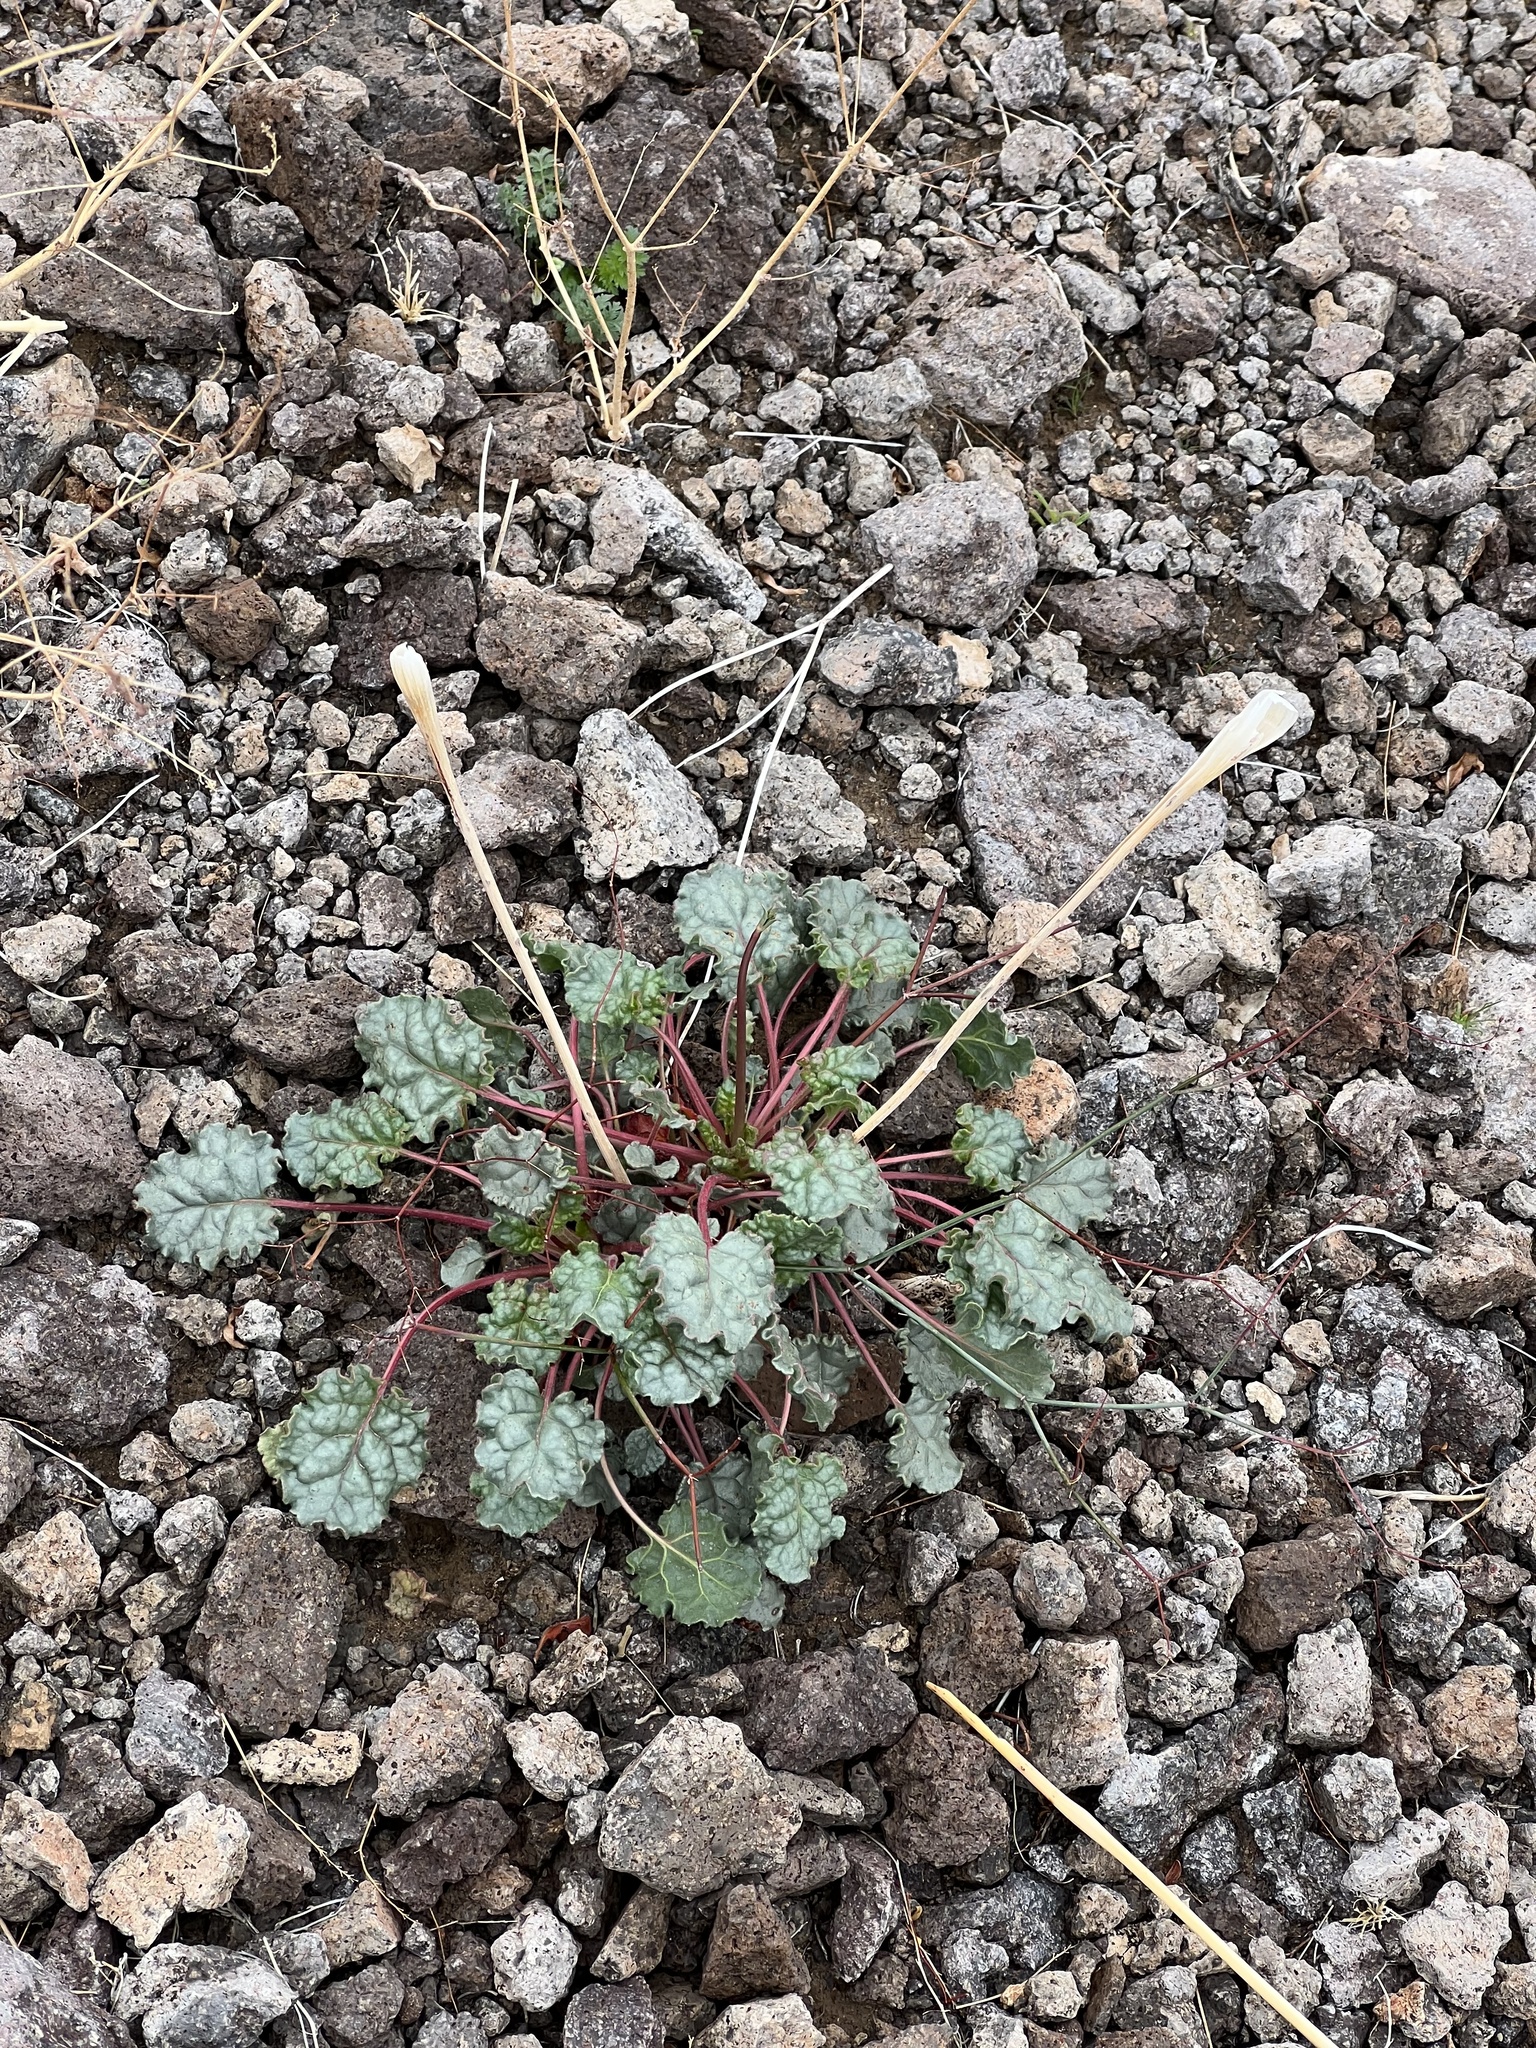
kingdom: Plantae
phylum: Tracheophyta
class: Magnoliopsida
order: Caryophyllales
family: Polygonaceae
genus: Eriogonum
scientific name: Eriogonum inflatum
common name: Desert trumpet
